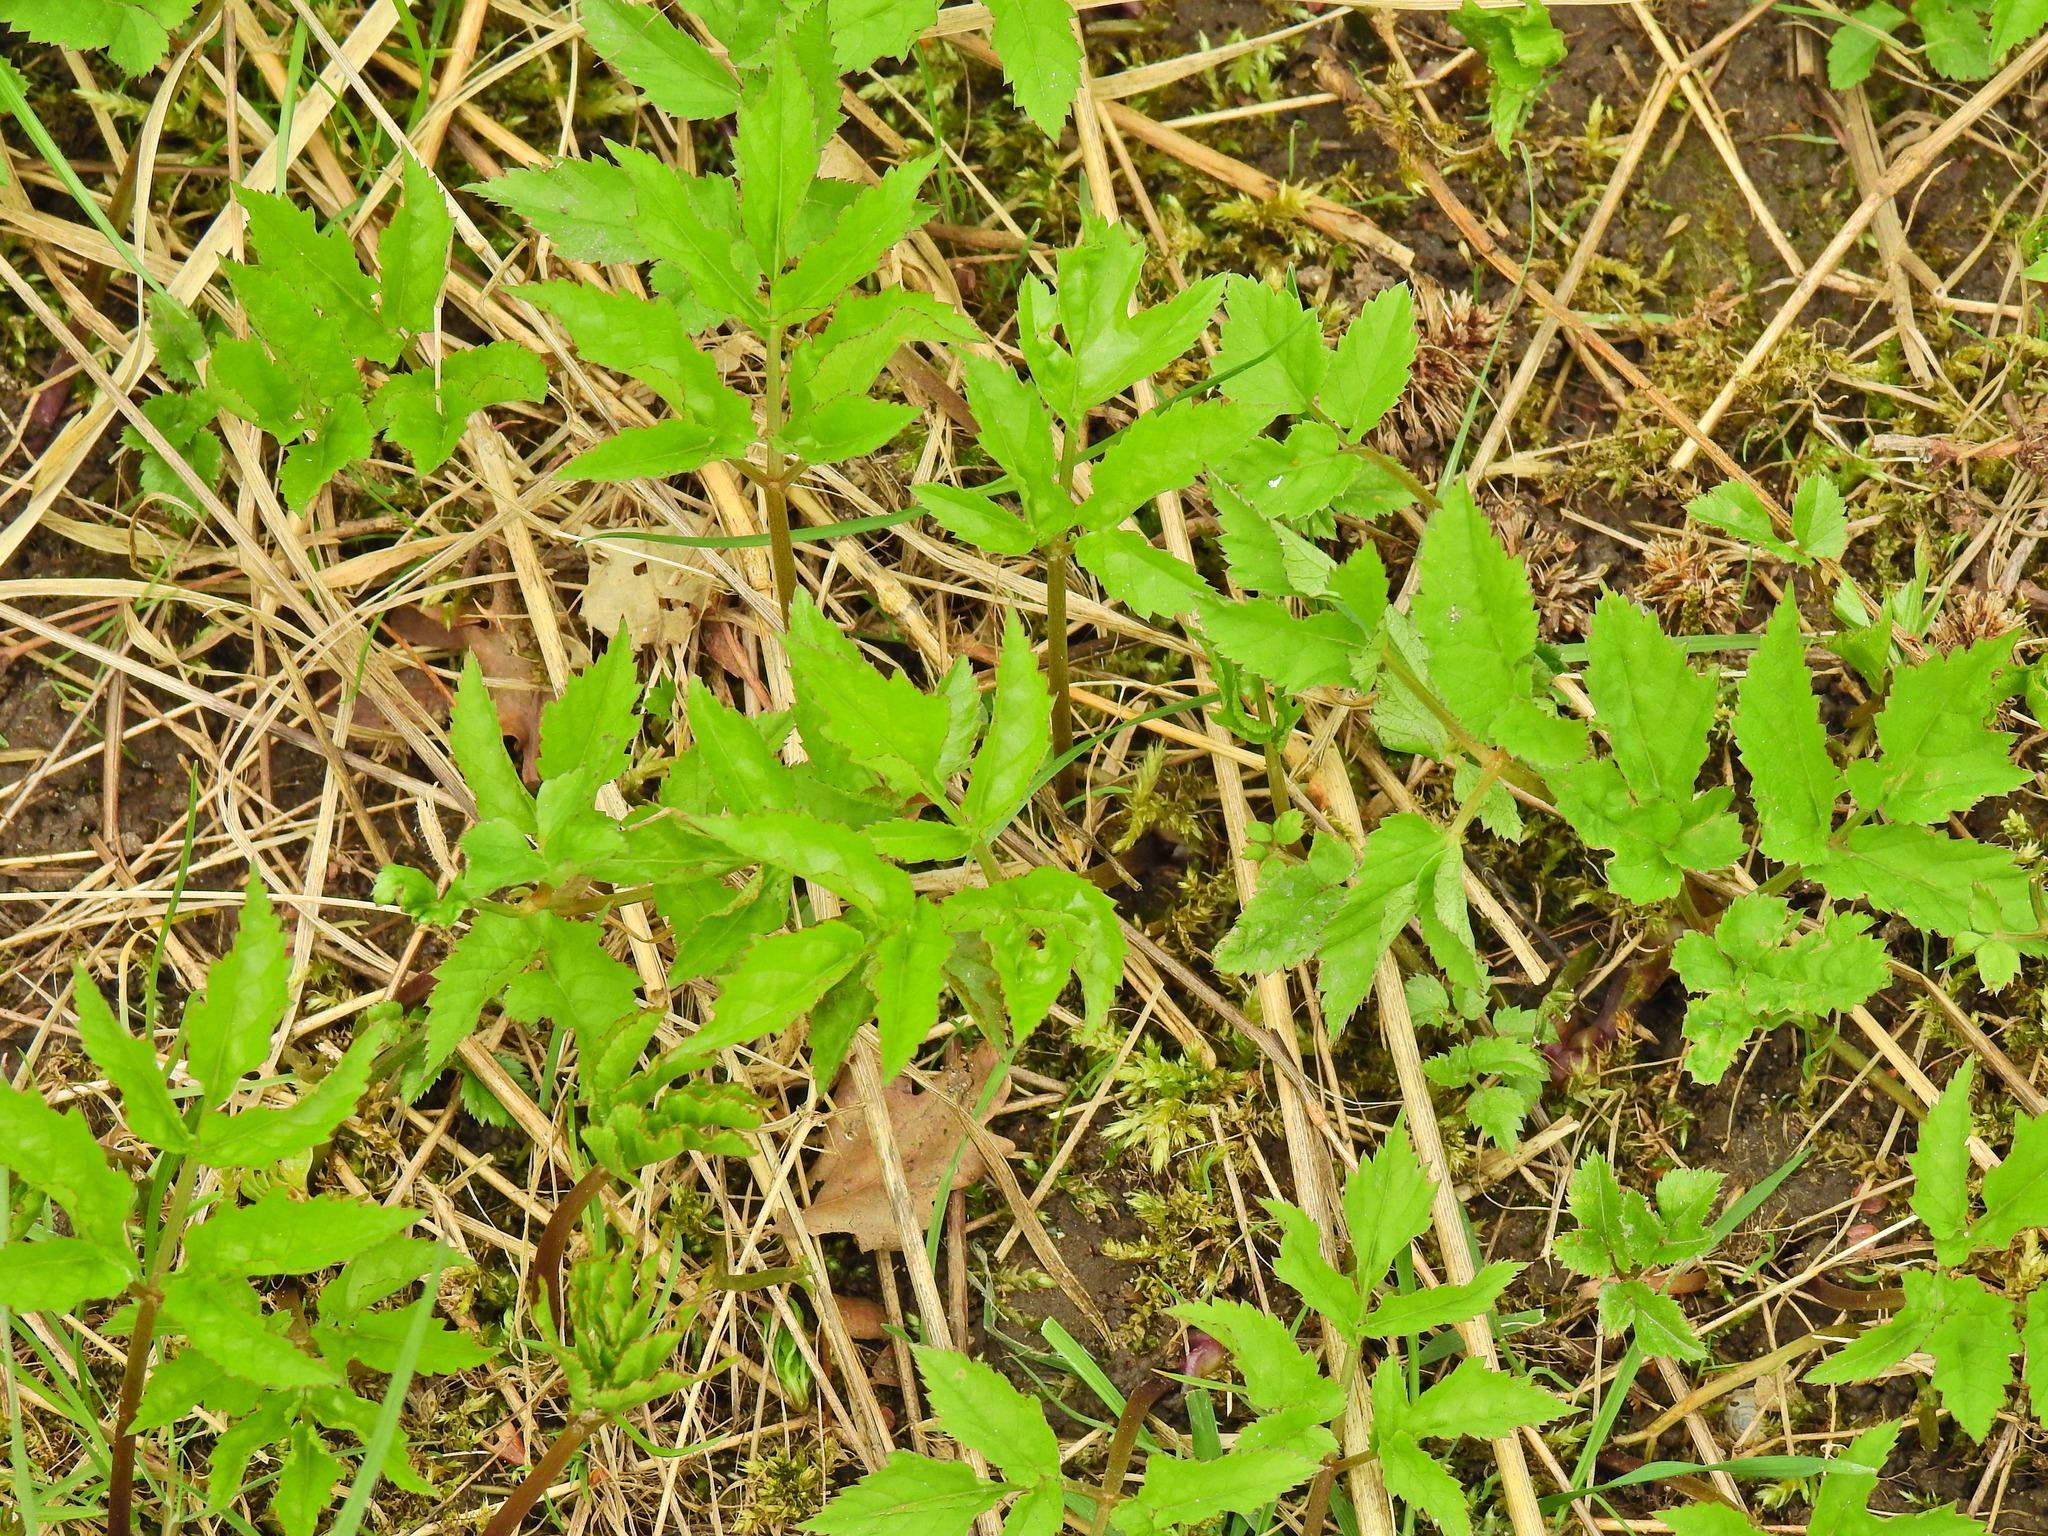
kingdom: Plantae
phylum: Tracheophyta
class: Magnoliopsida
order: Apiales
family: Apiaceae
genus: Aegopodium
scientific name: Aegopodium podagraria
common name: Ground-elder
